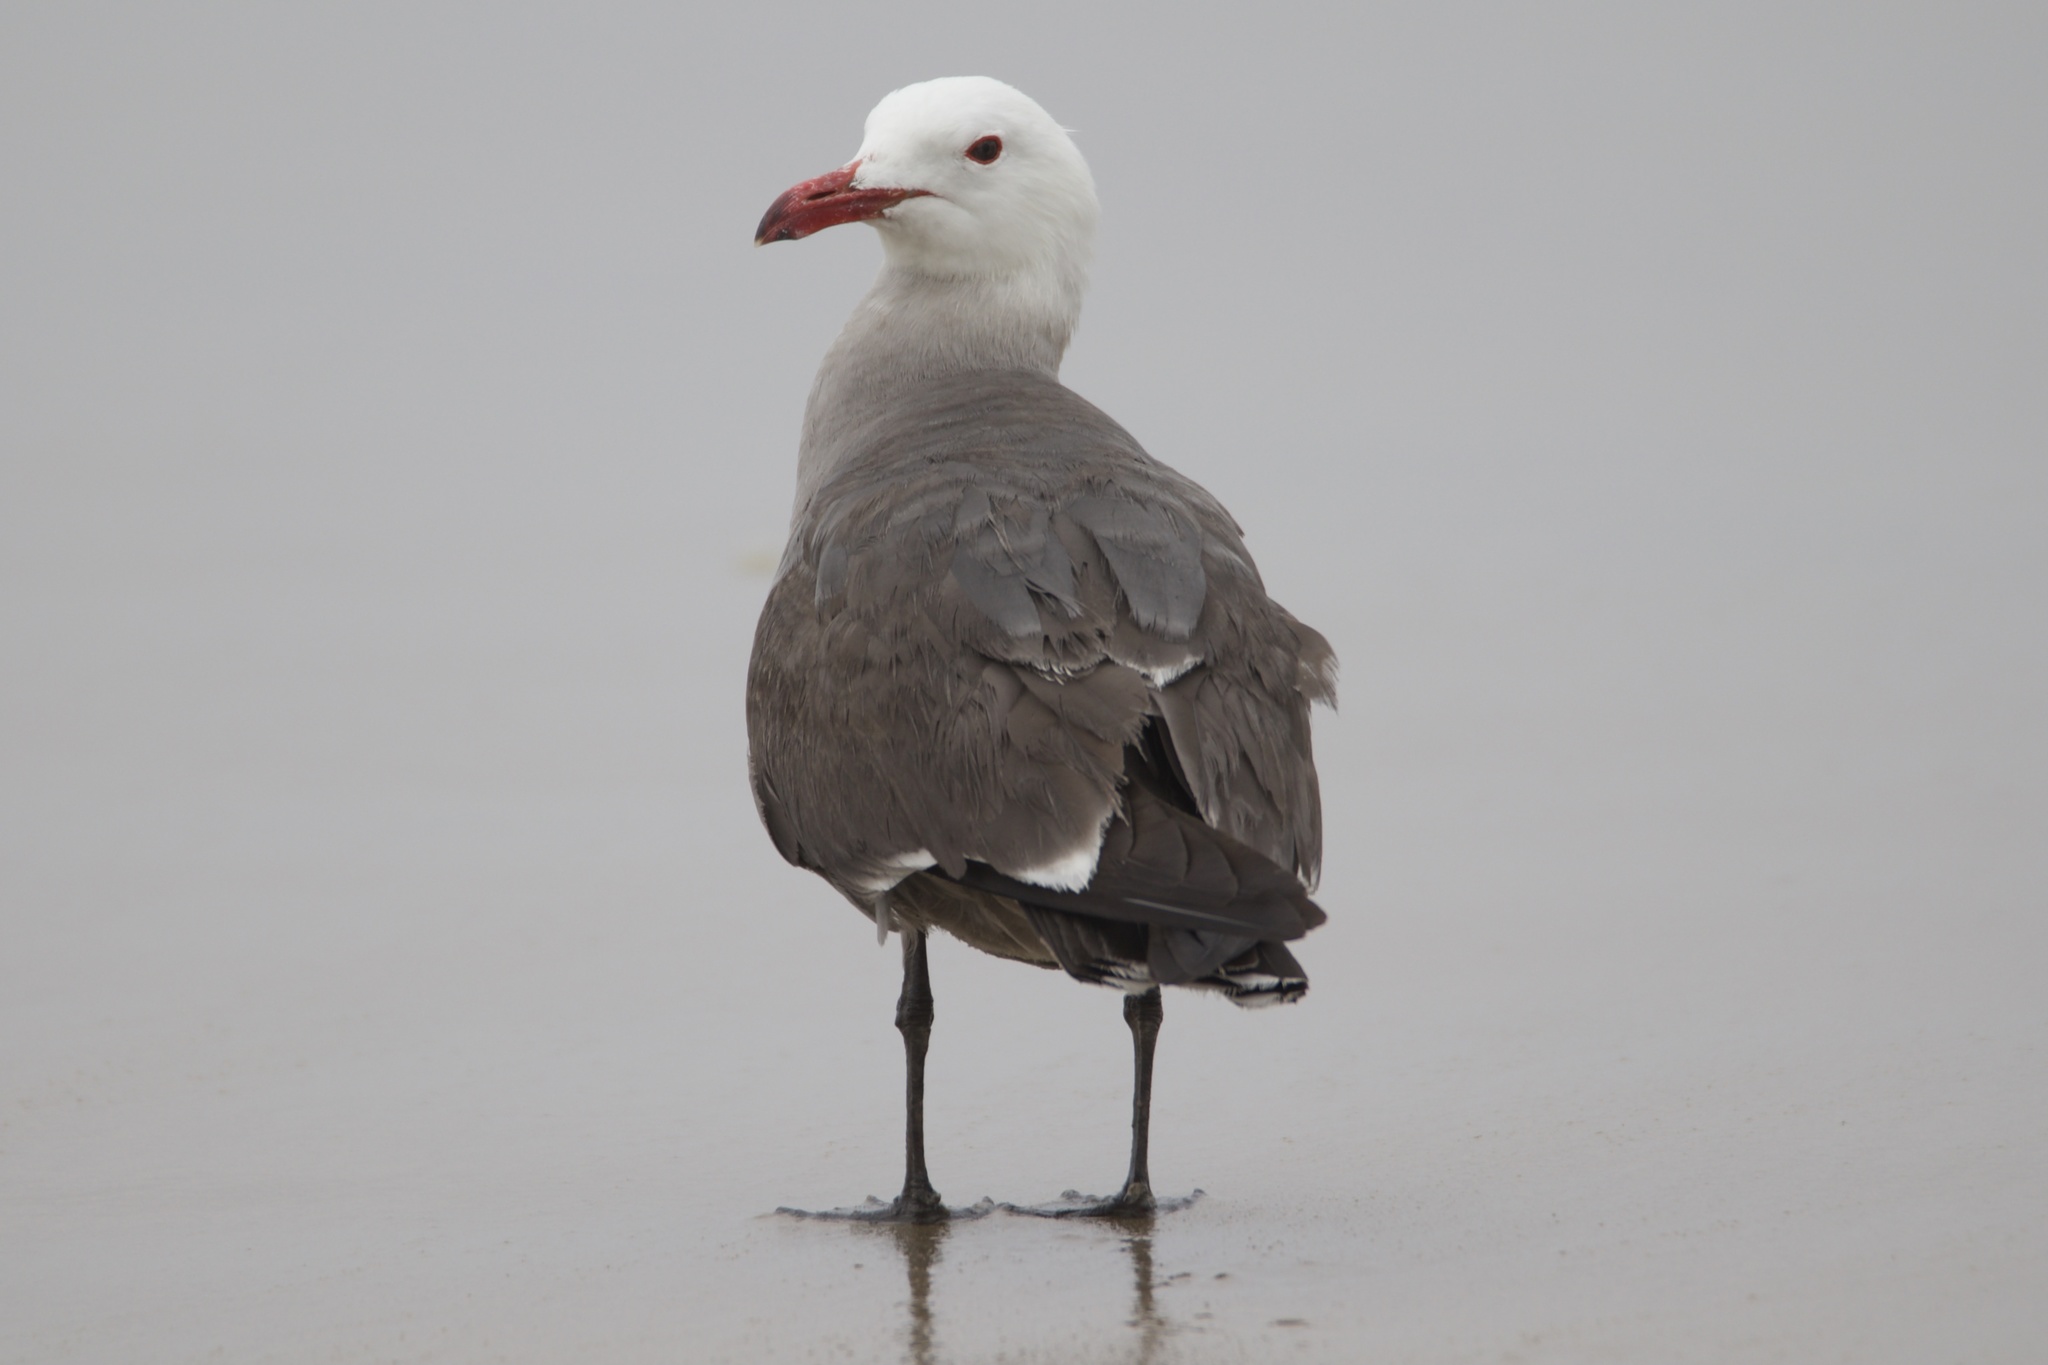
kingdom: Animalia
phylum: Chordata
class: Aves
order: Charadriiformes
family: Laridae
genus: Larus
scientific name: Larus heermanni
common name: Heermann's gull
